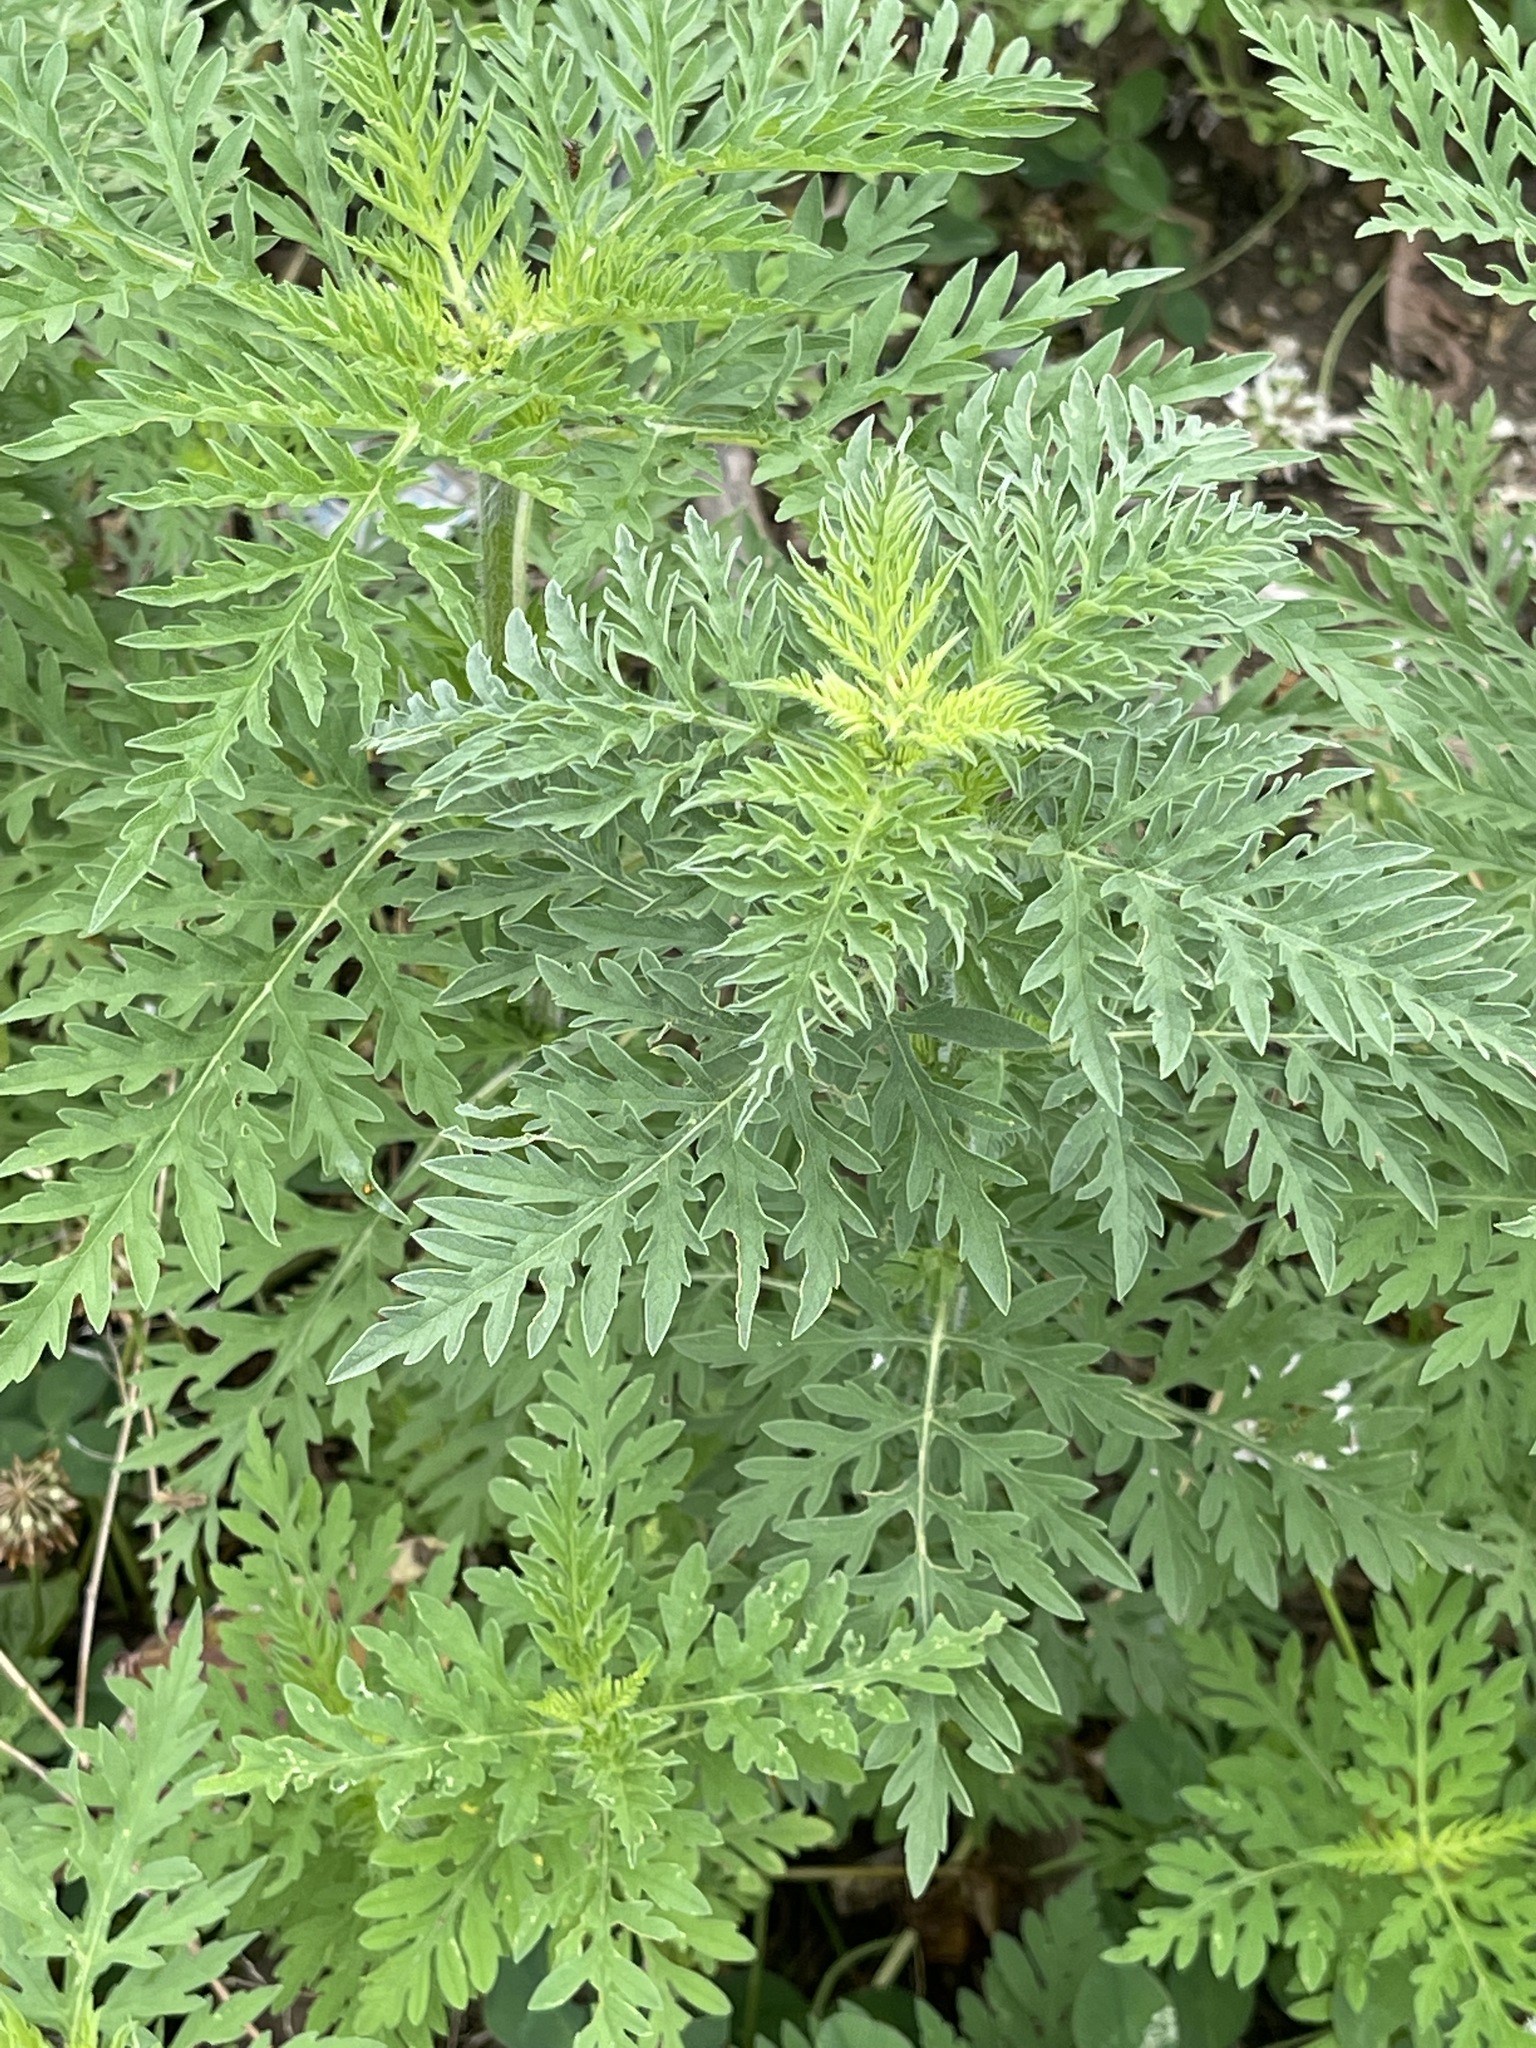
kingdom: Plantae
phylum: Tracheophyta
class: Magnoliopsida
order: Asterales
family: Asteraceae
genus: Ambrosia
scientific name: Ambrosia artemisiifolia
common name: Annual ragweed
